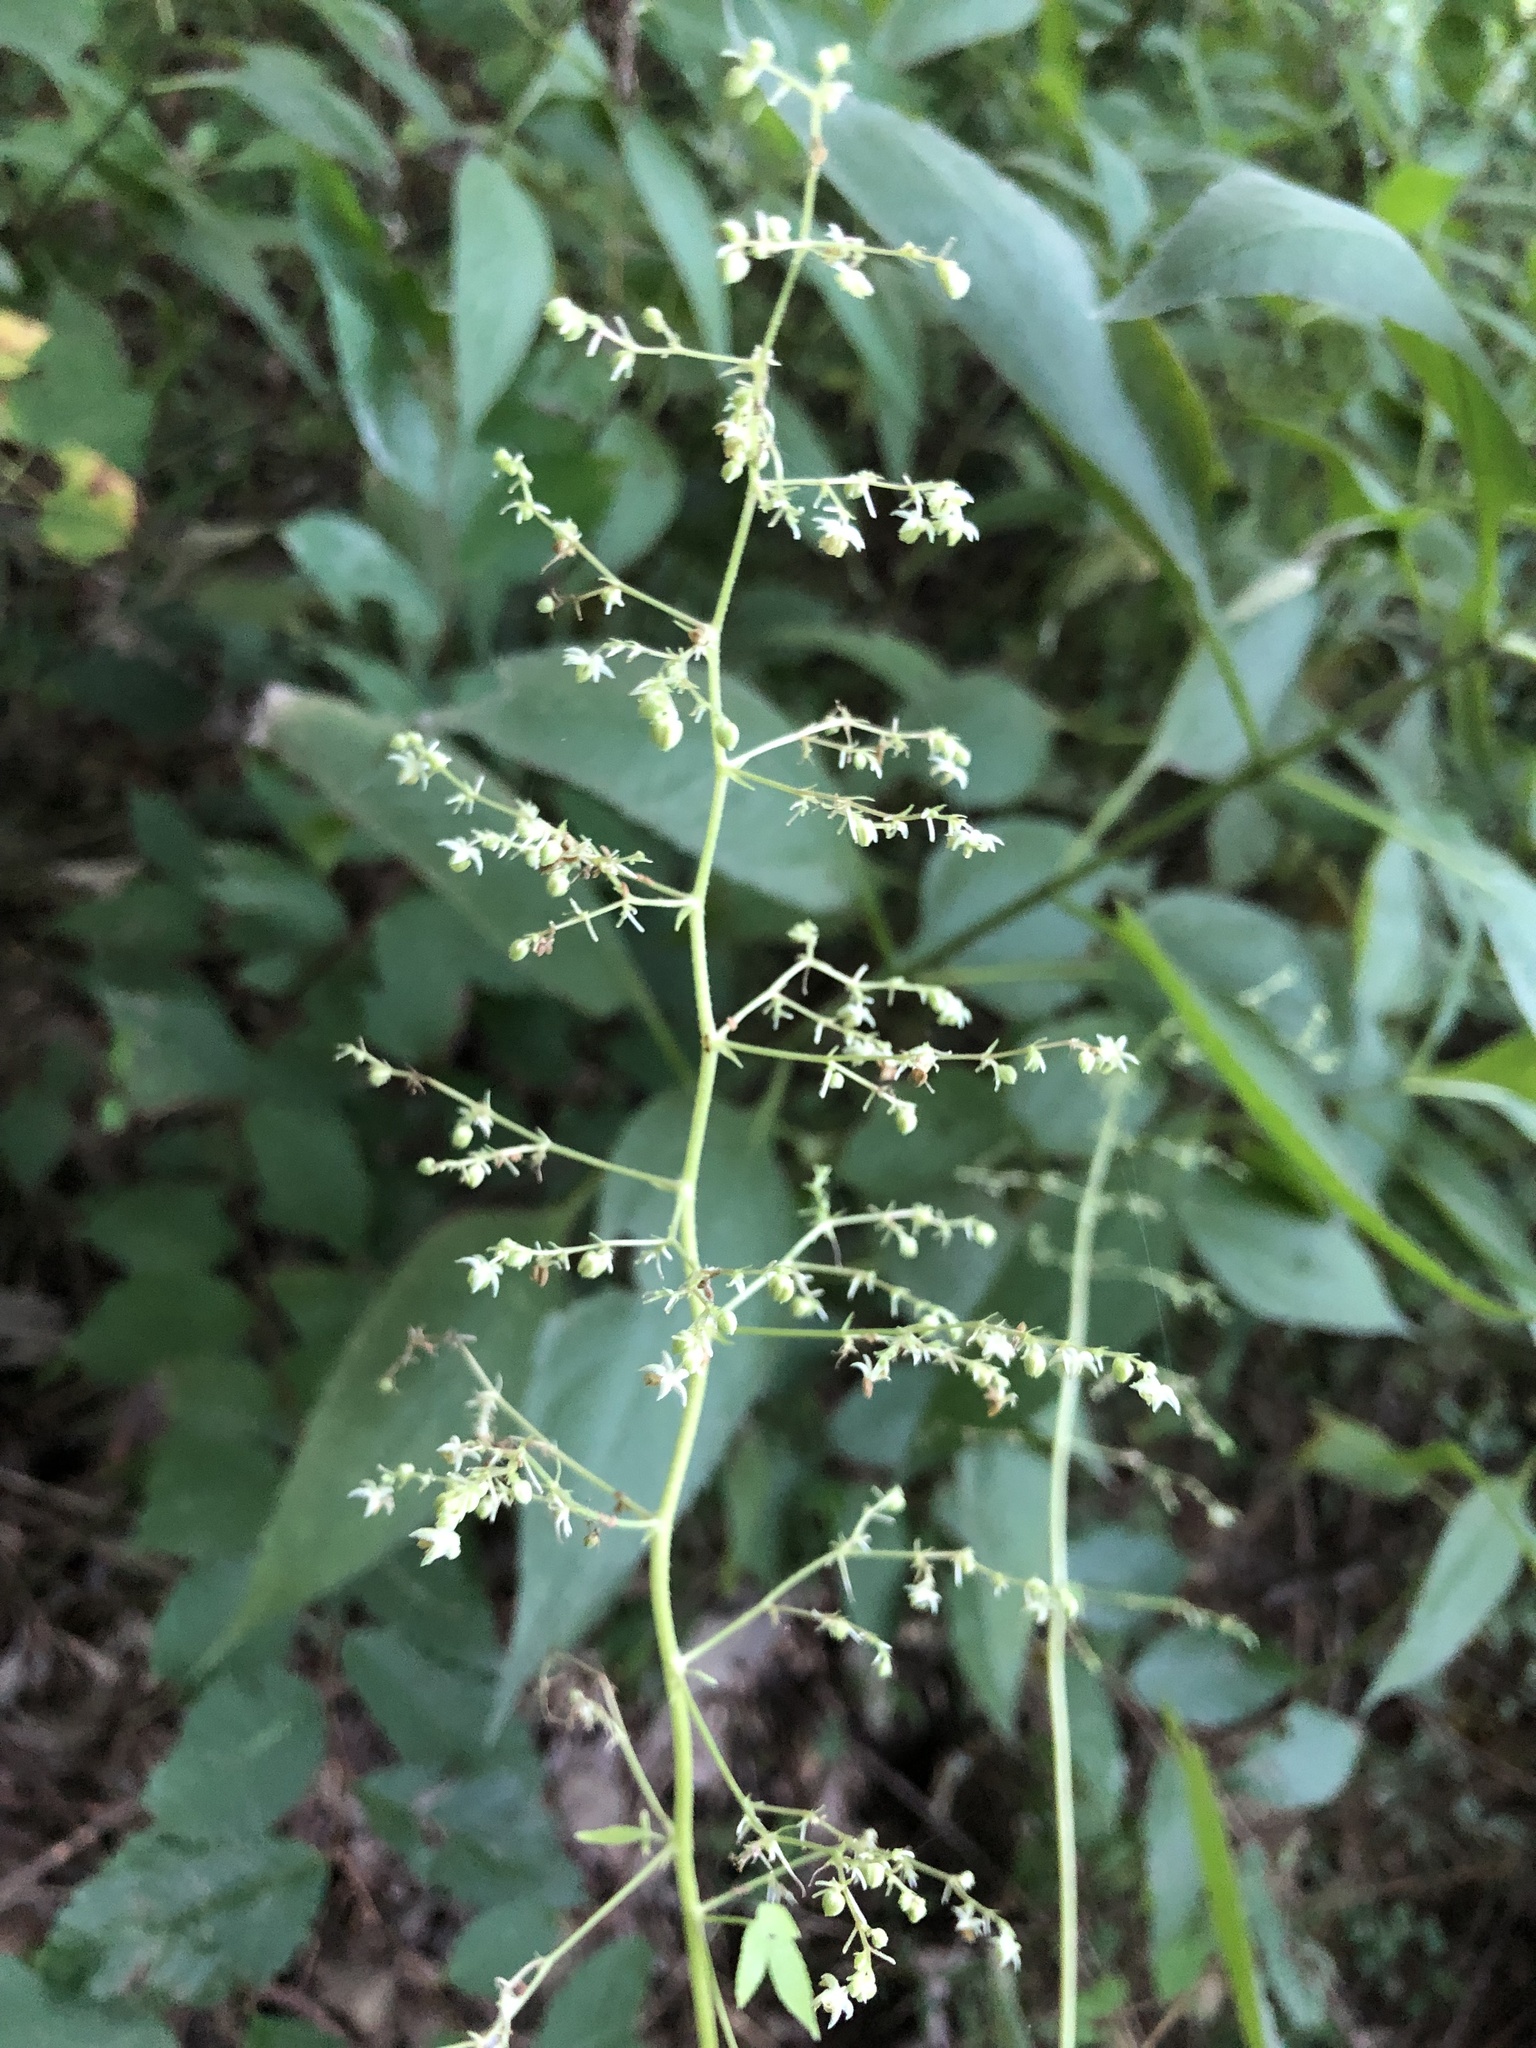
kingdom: Plantae
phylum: Tracheophyta
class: Magnoliopsida
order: Rosales
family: Cannabaceae
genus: Humulus
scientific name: Humulus scandens
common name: Japanese hop
